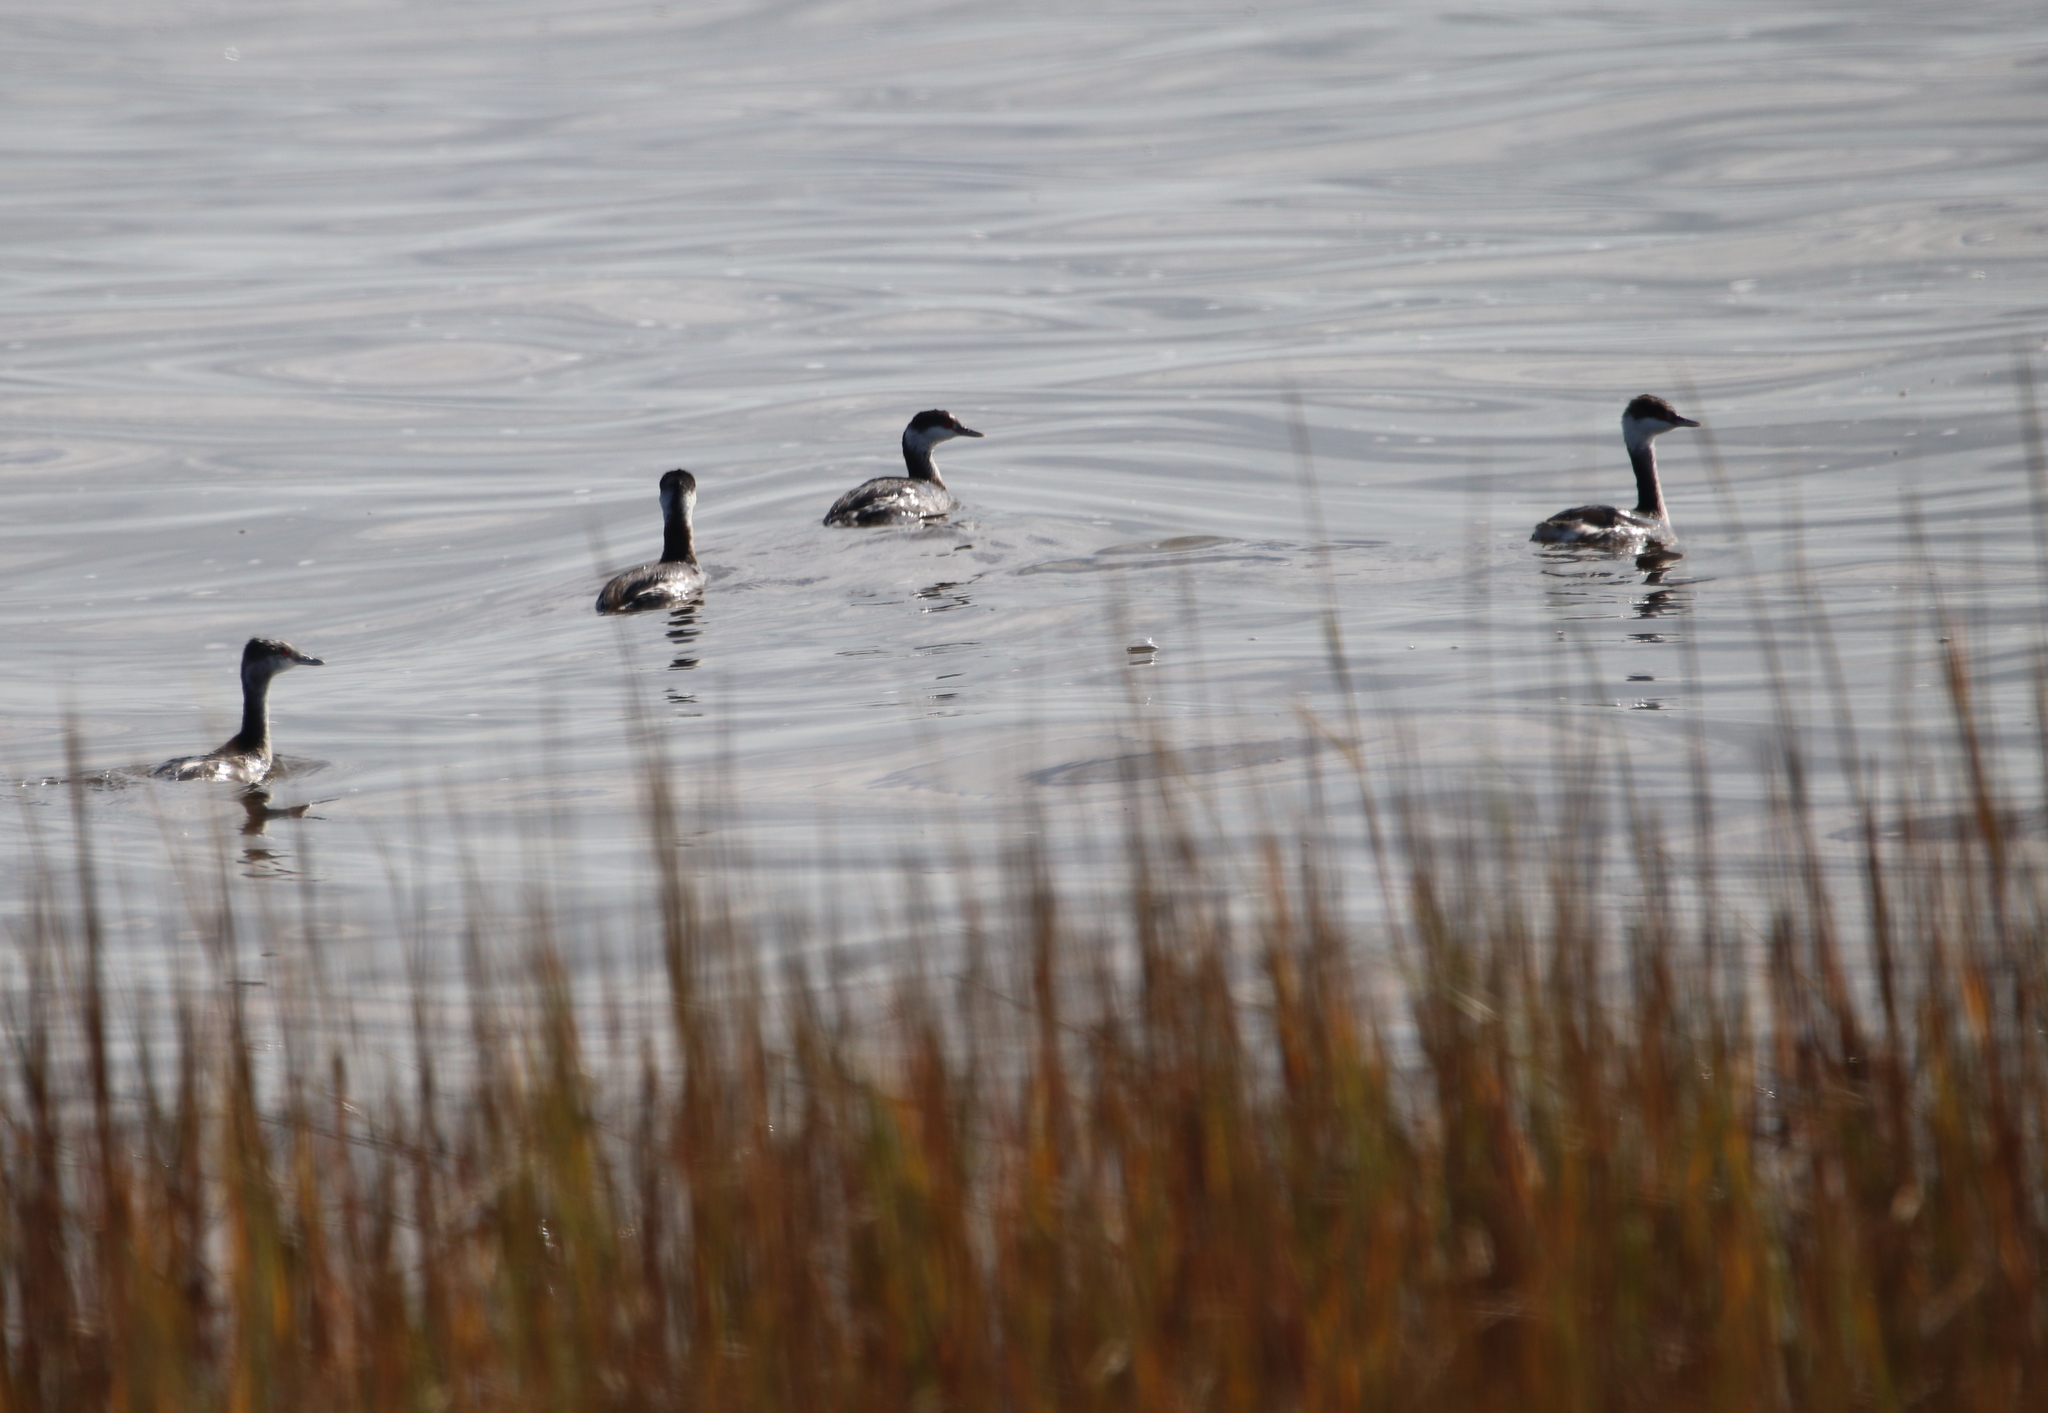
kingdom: Animalia
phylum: Chordata
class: Aves
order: Podicipediformes
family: Podicipedidae
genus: Podiceps
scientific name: Podiceps auritus
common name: Horned grebe
